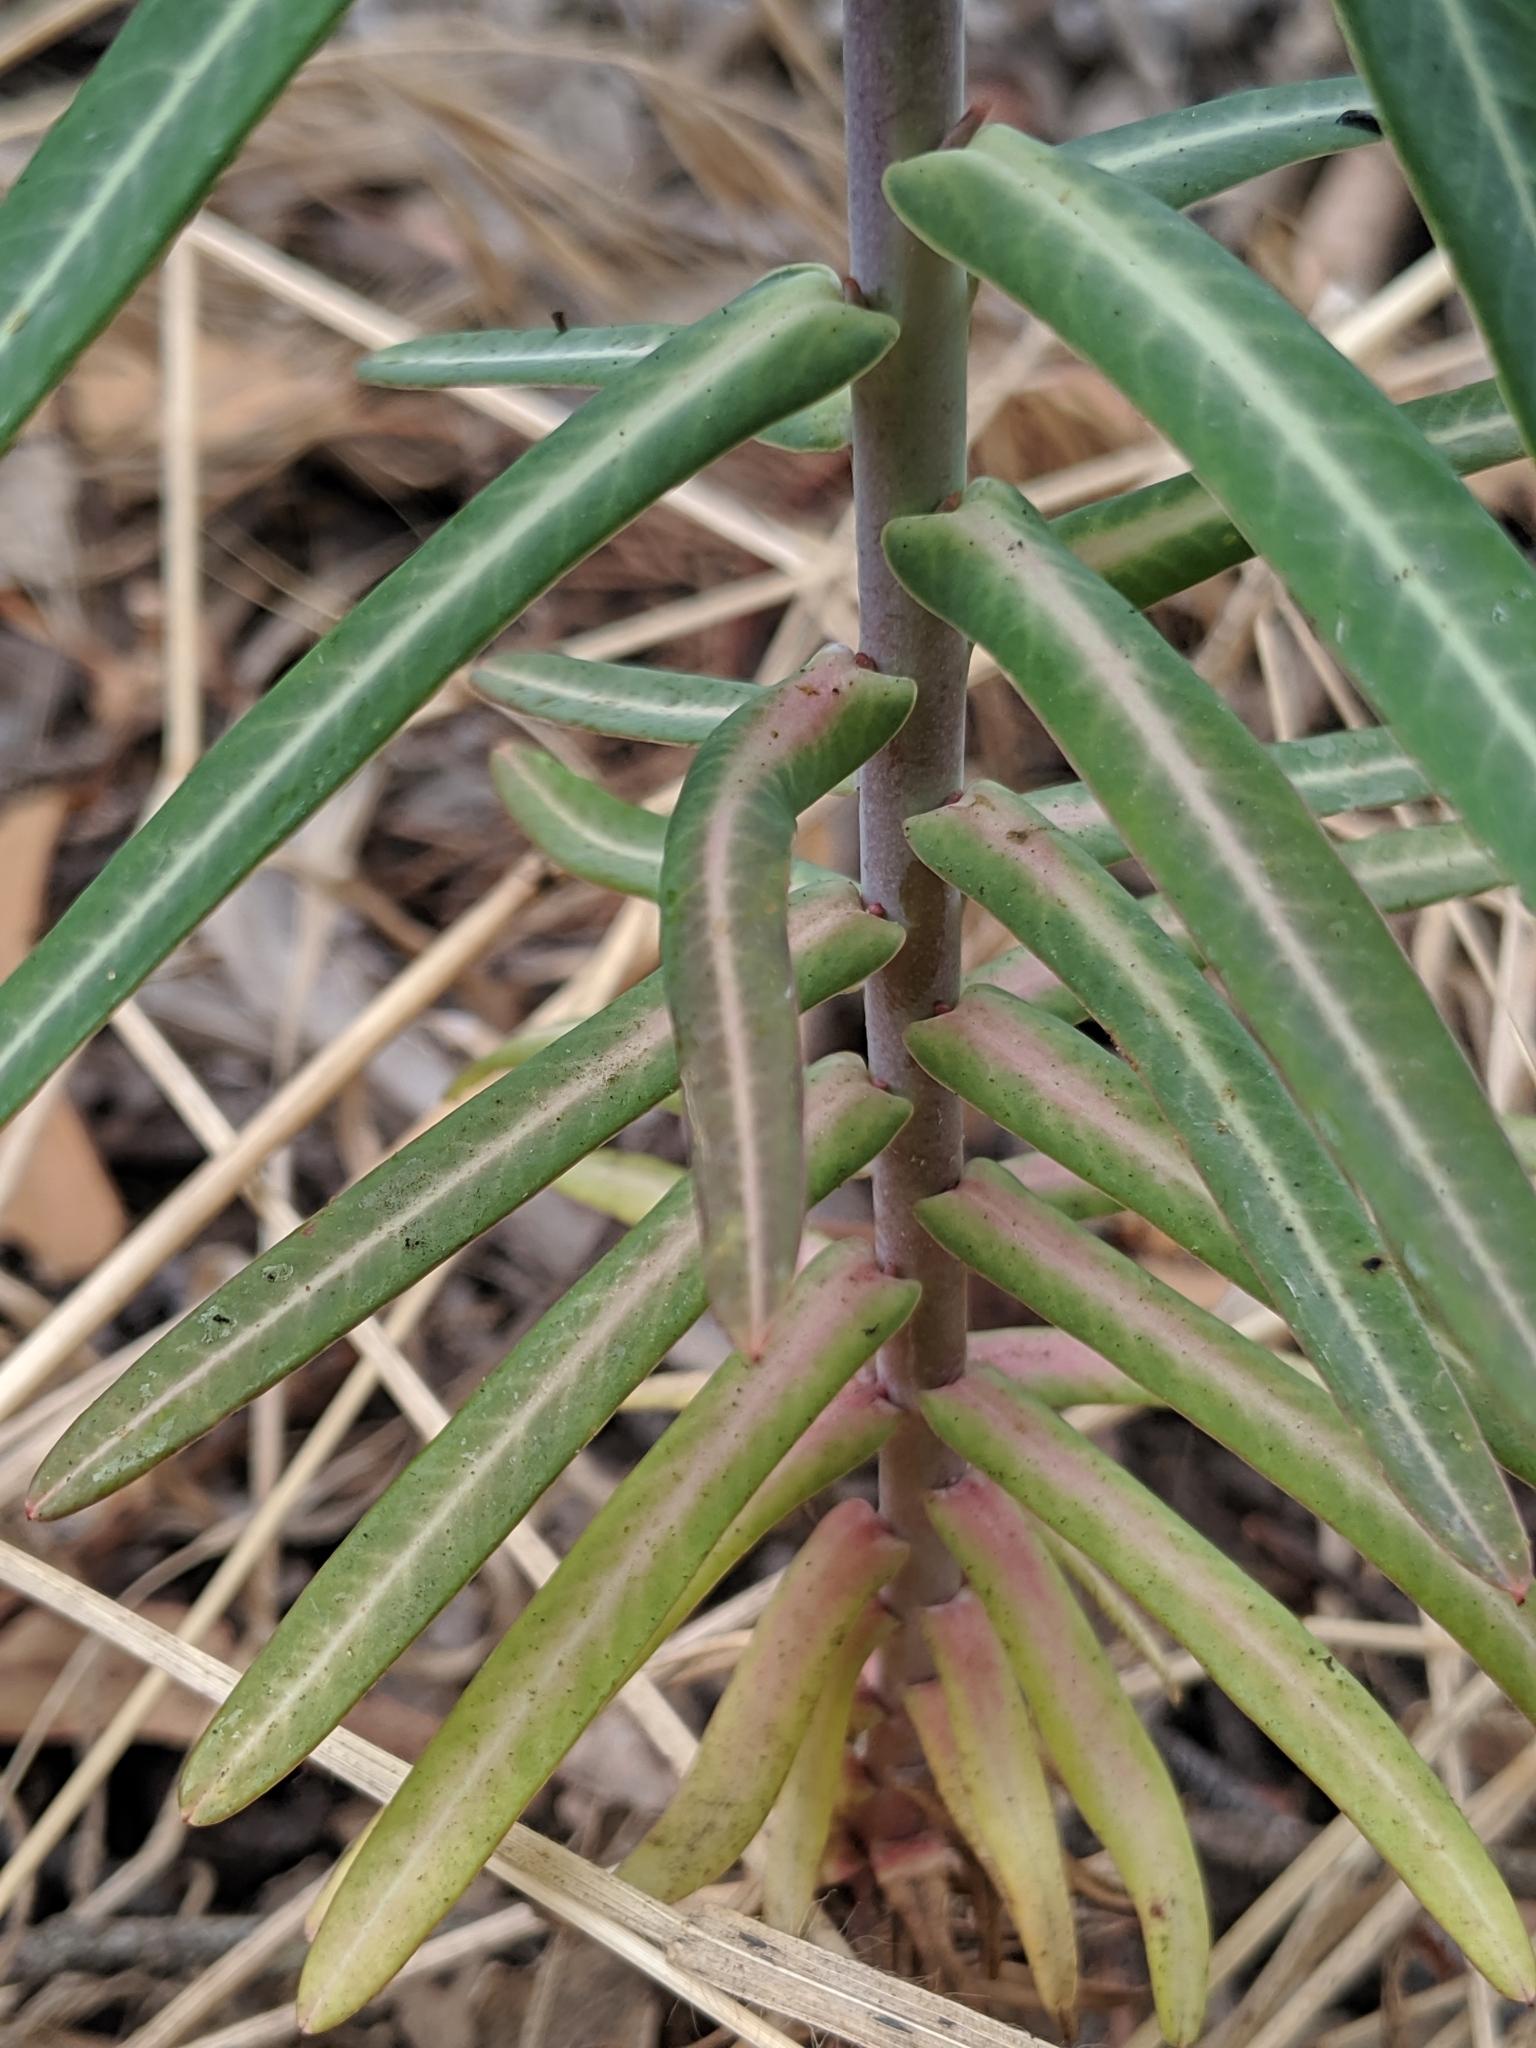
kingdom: Plantae
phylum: Tracheophyta
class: Magnoliopsida
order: Malpighiales
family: Euphorbiaceae
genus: Euphorbia
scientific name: Euphorbia lathyris
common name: Caper spurge
